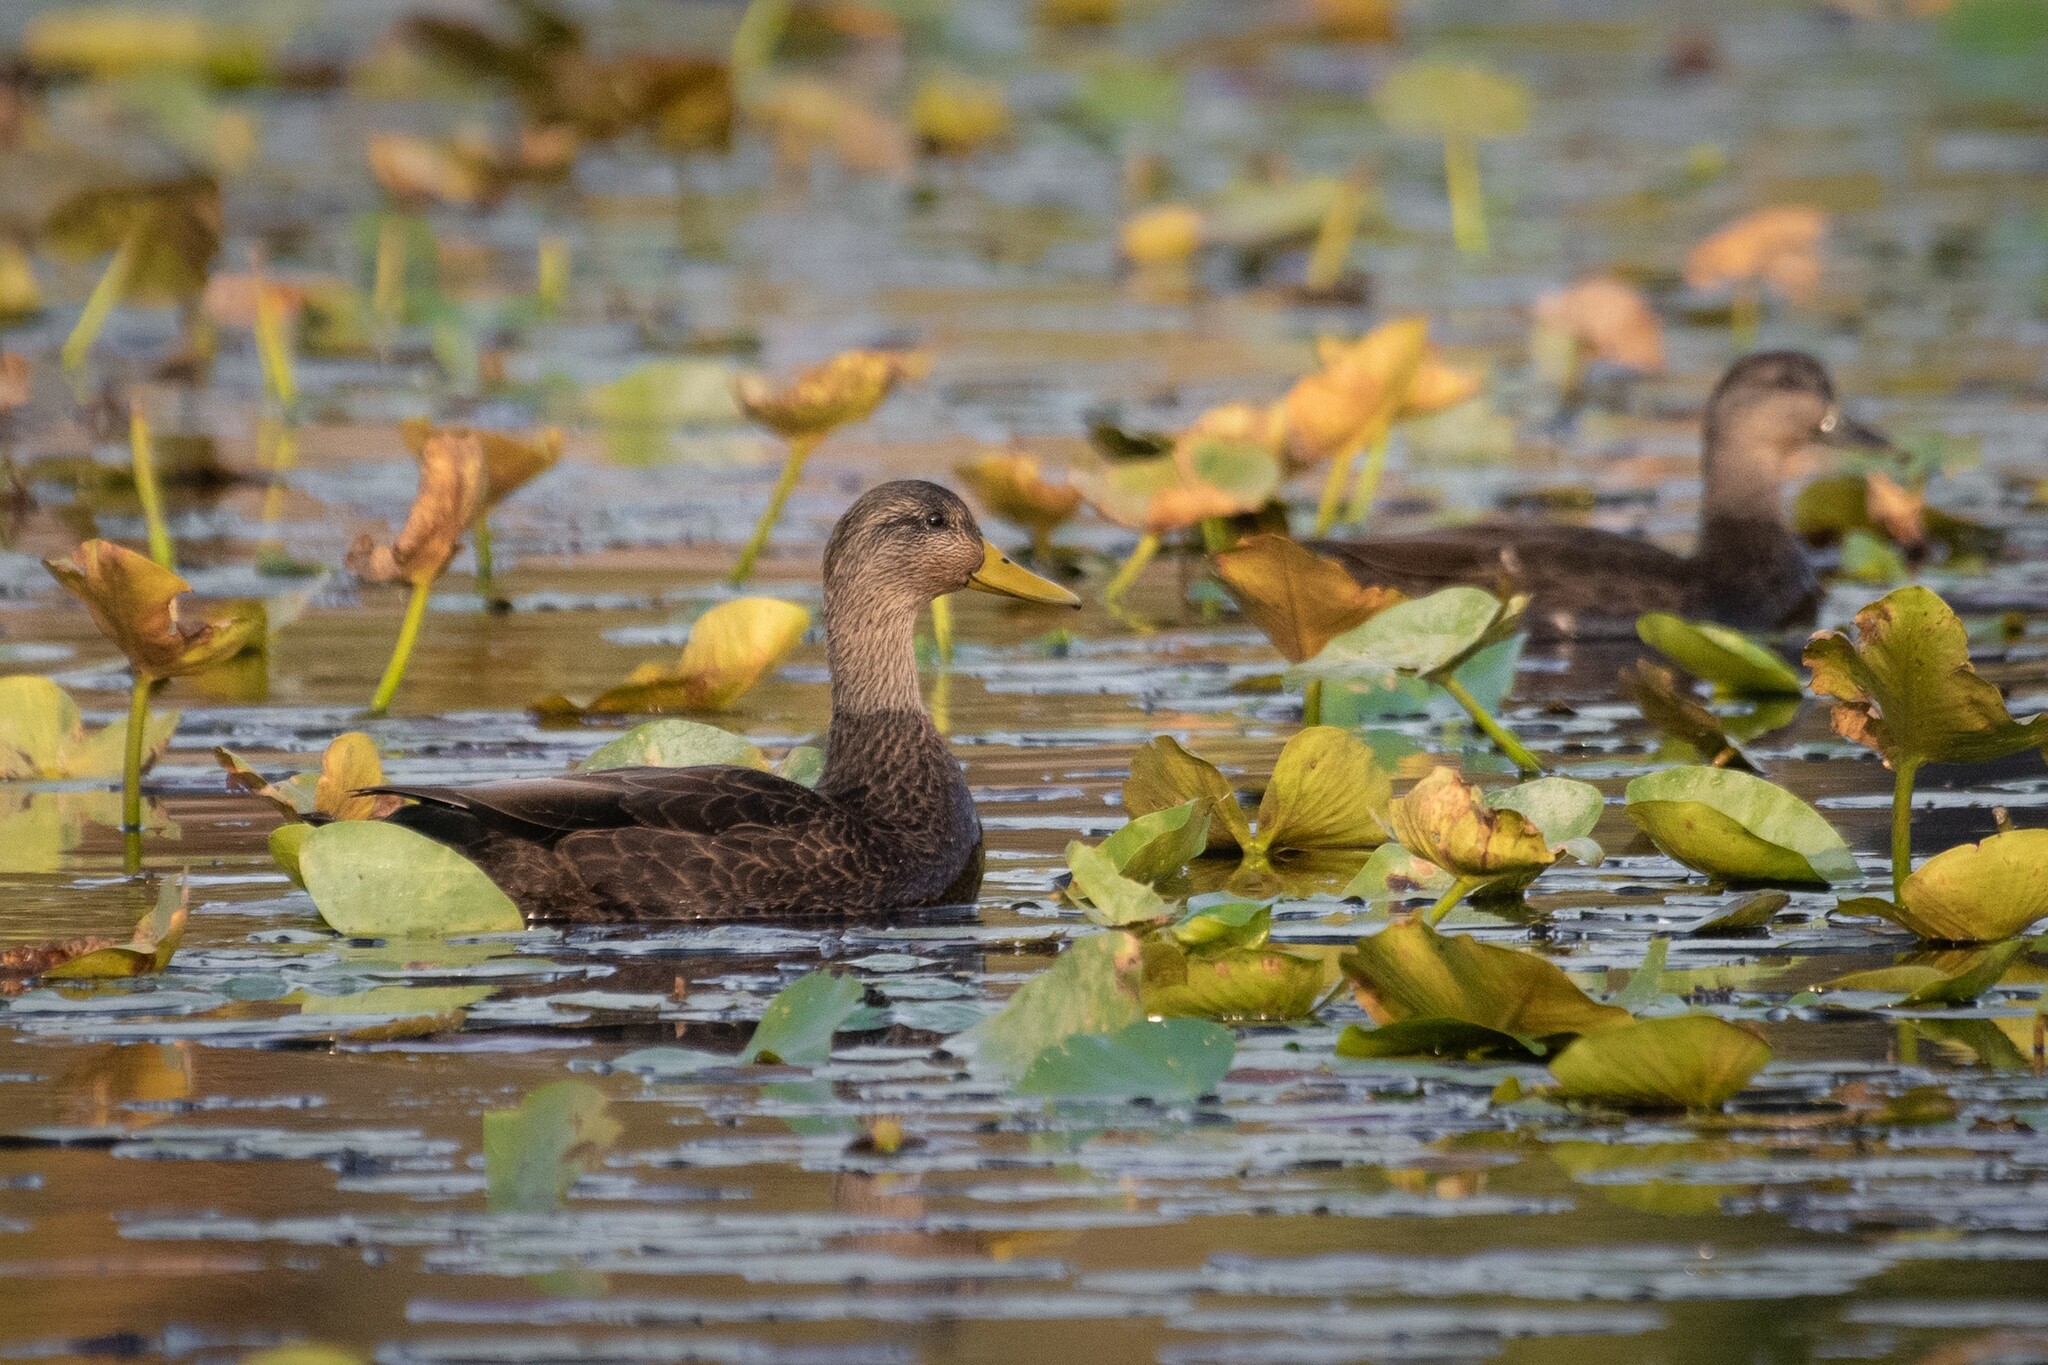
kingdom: Animalia
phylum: Chordata
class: Aves
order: Anseriformes
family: Anatidae
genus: Anas
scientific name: Anas rubripes
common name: American black duck
